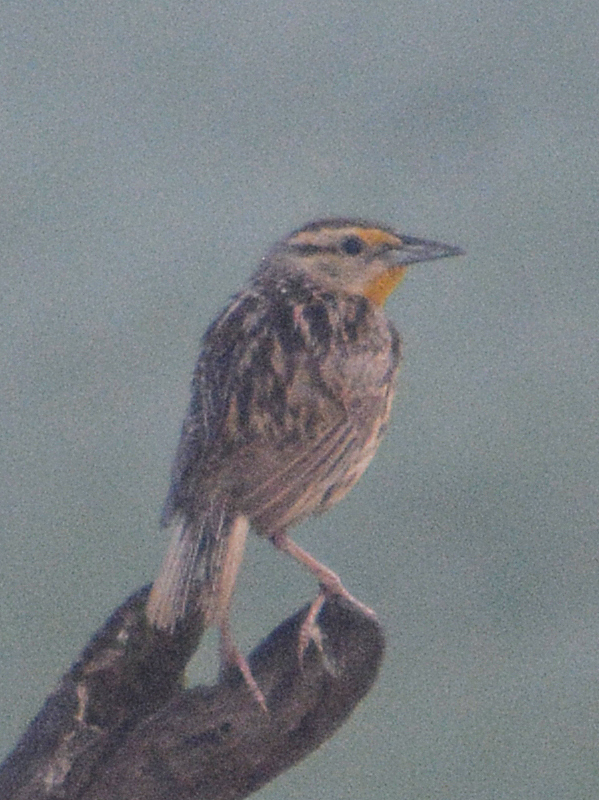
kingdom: Animalia
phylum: Chordata
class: Aves
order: Passeriformes
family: Icteridae
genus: Sturnella
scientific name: Sturnella magna
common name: Eastern meadowlark
